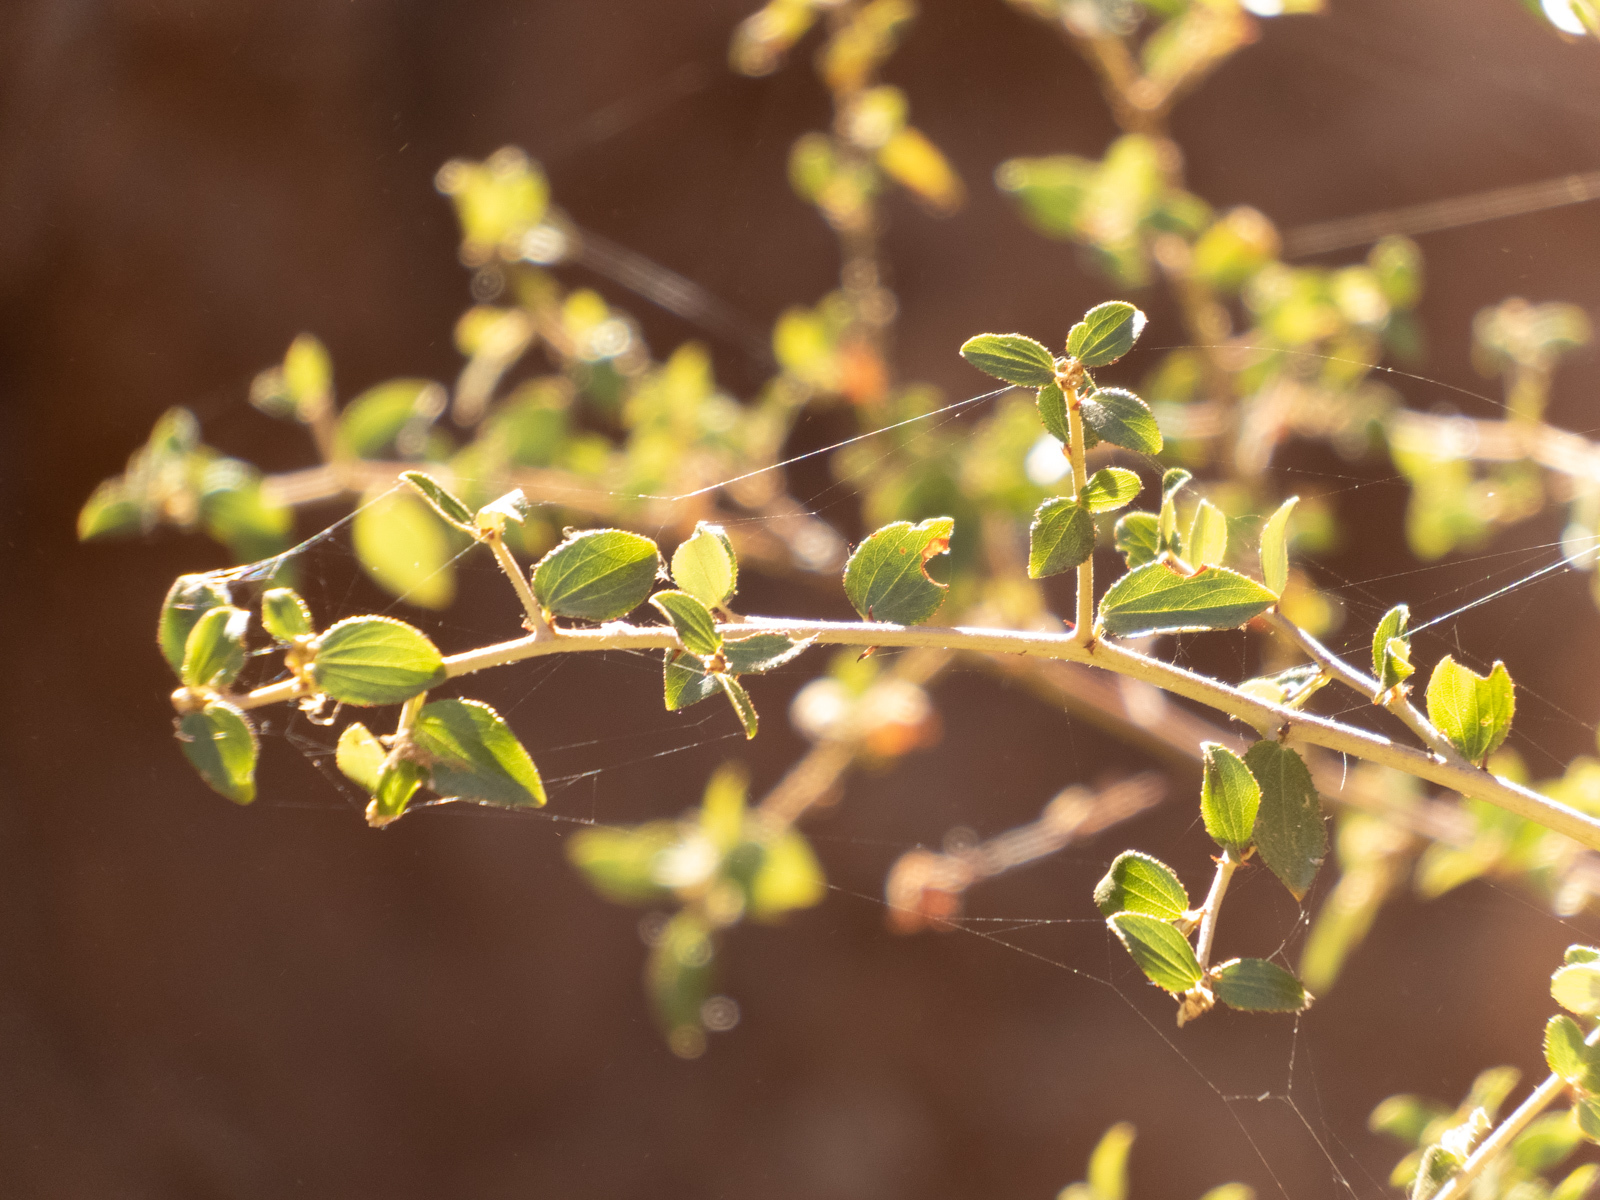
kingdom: Plantae
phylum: Tracheophyta
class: Magnoliopsida
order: Rosales
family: Rhamnaceae
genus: Ceanothus
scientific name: Ceanothus oliganthus
